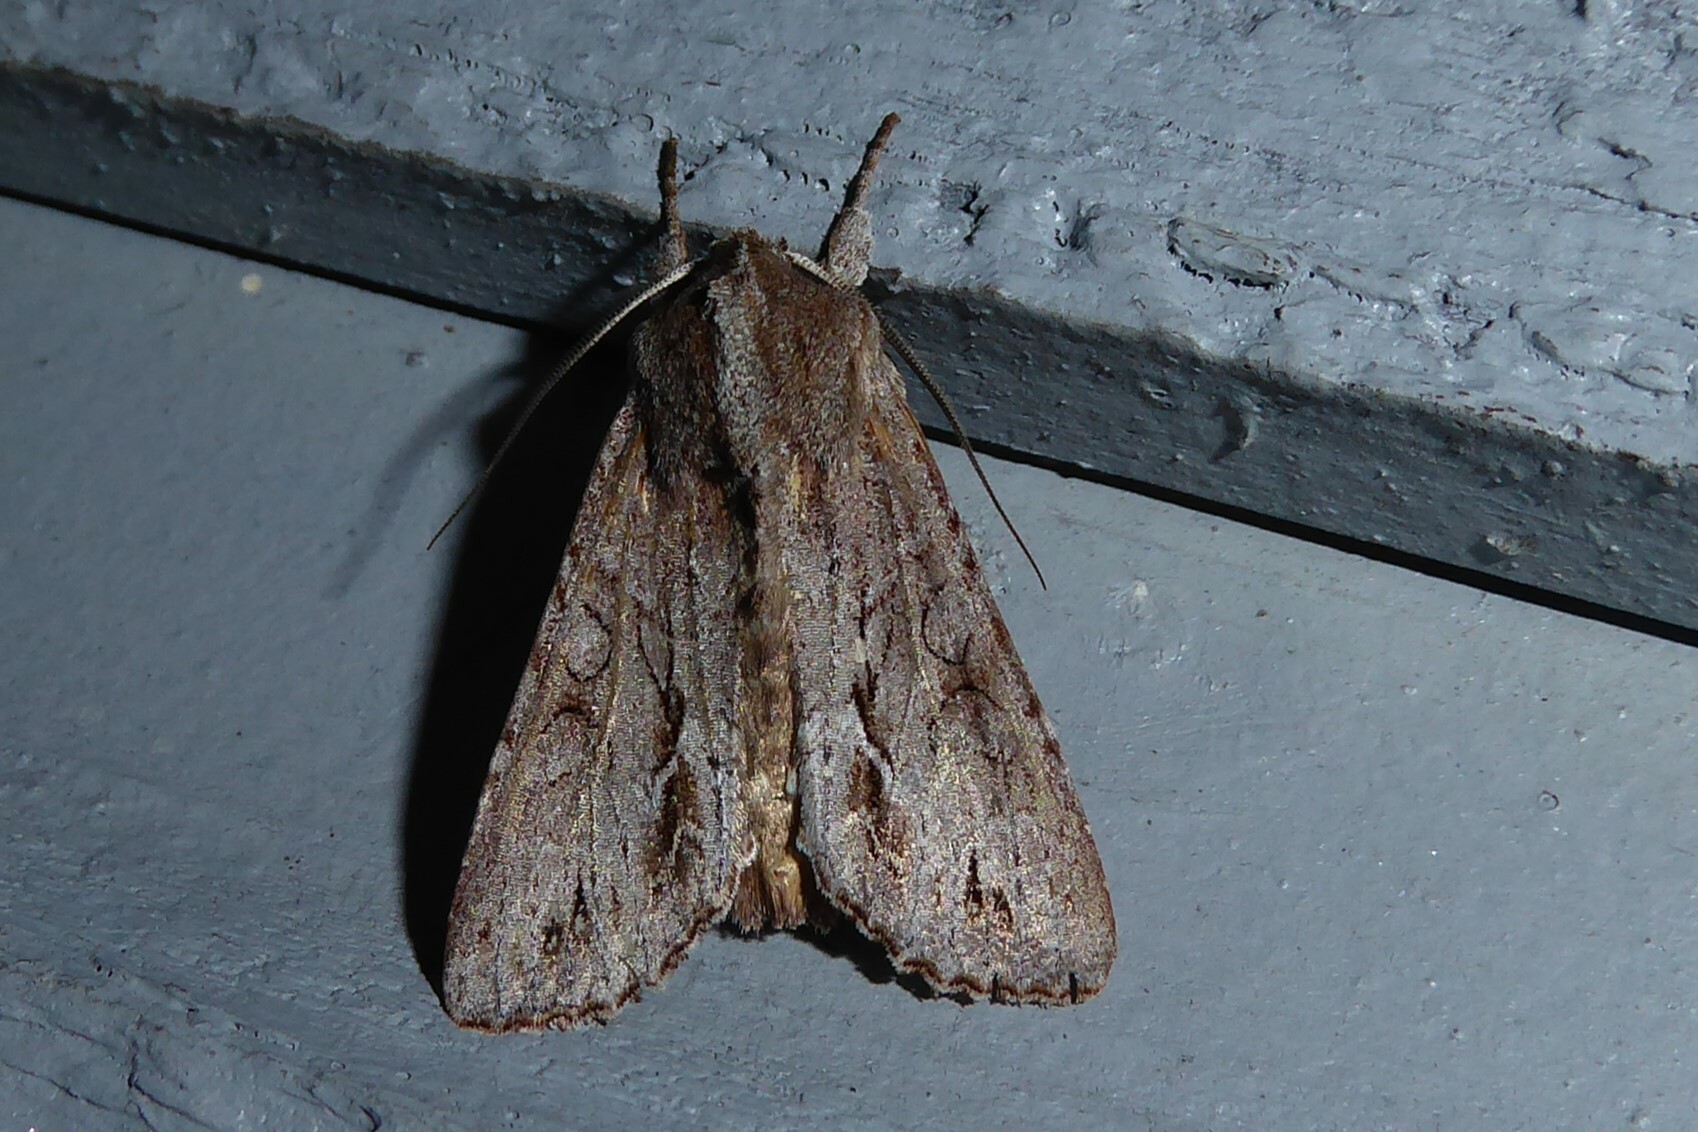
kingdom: Animalia
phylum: Arthropoda
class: Insecta
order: Lepidoptera
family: Noctuidae
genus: Ichneutica
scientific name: Ichneutica
